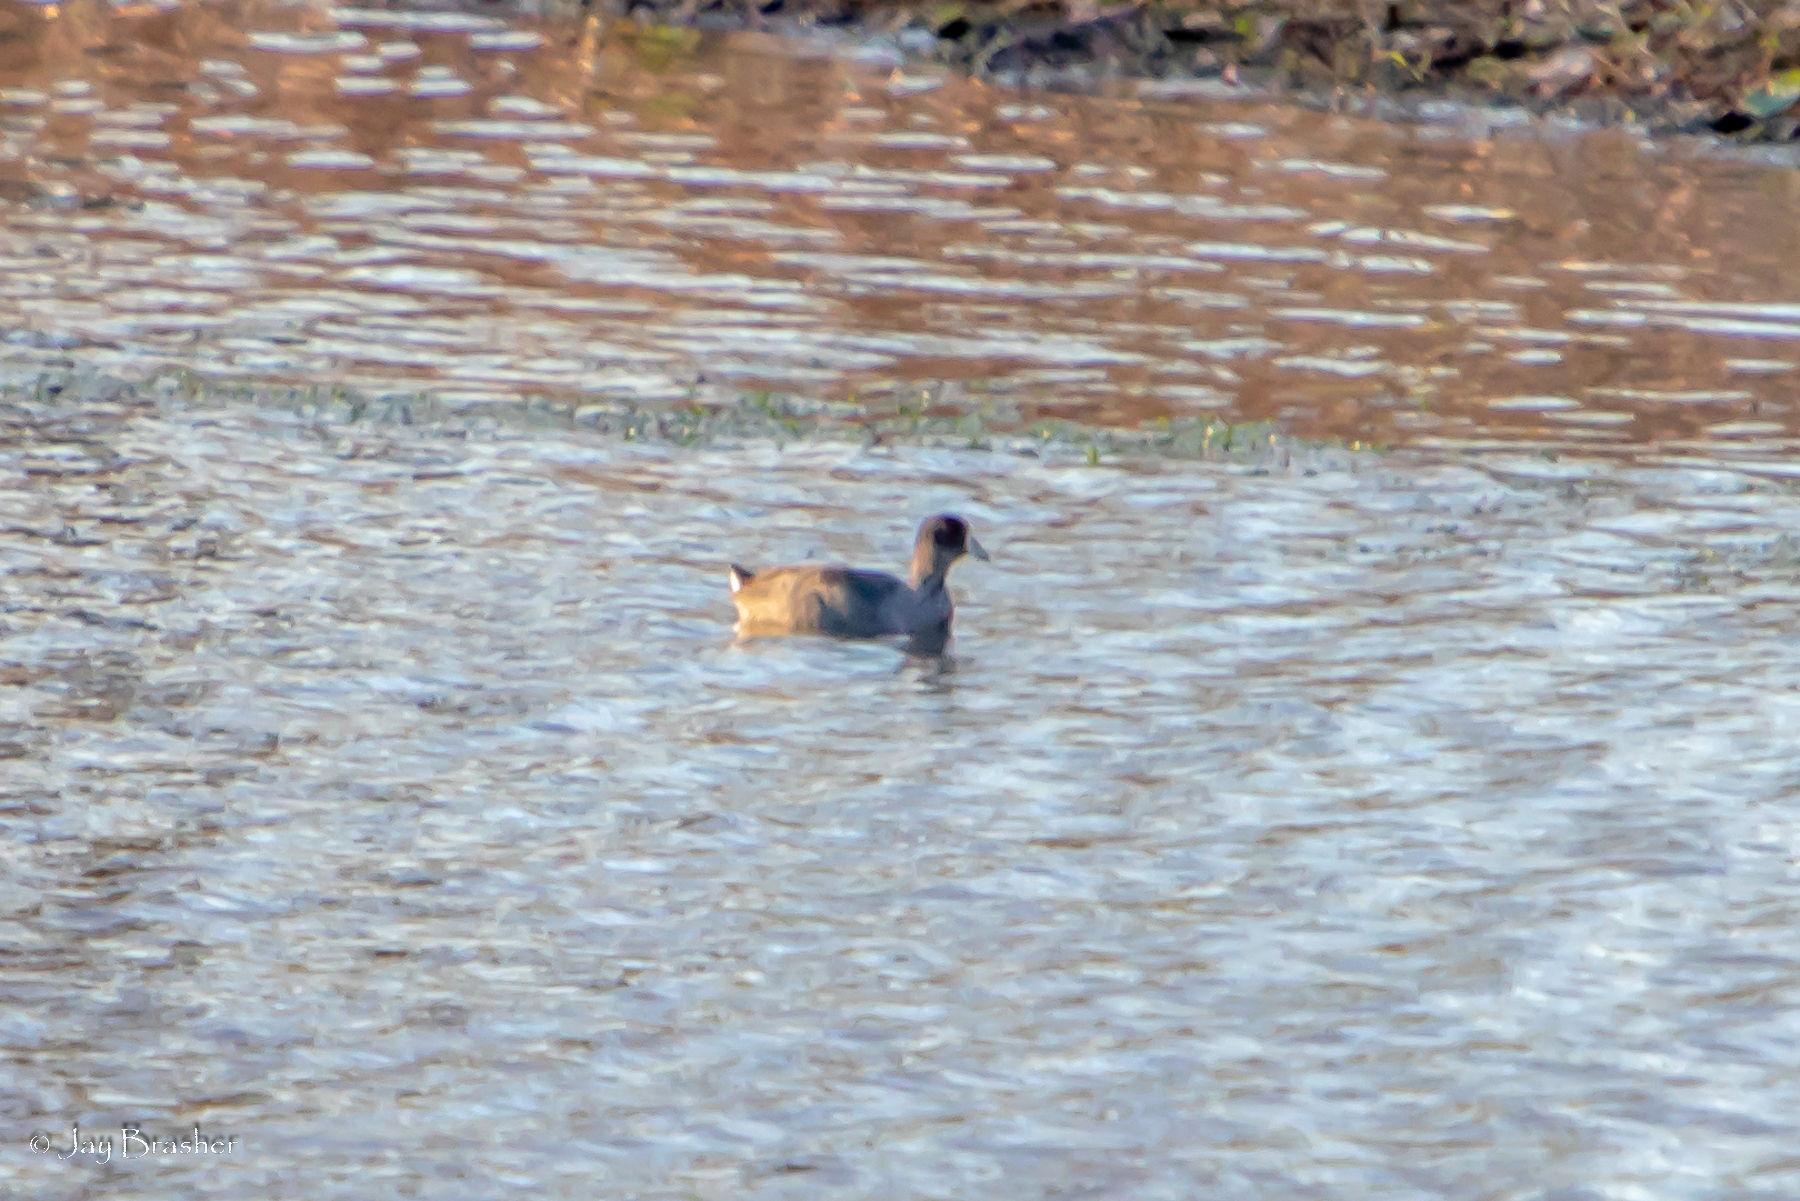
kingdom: Animalia
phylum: Chordata
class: Aves
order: Gruiformes
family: Rallidae
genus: Fulica
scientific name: Fulica americana
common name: American coot
